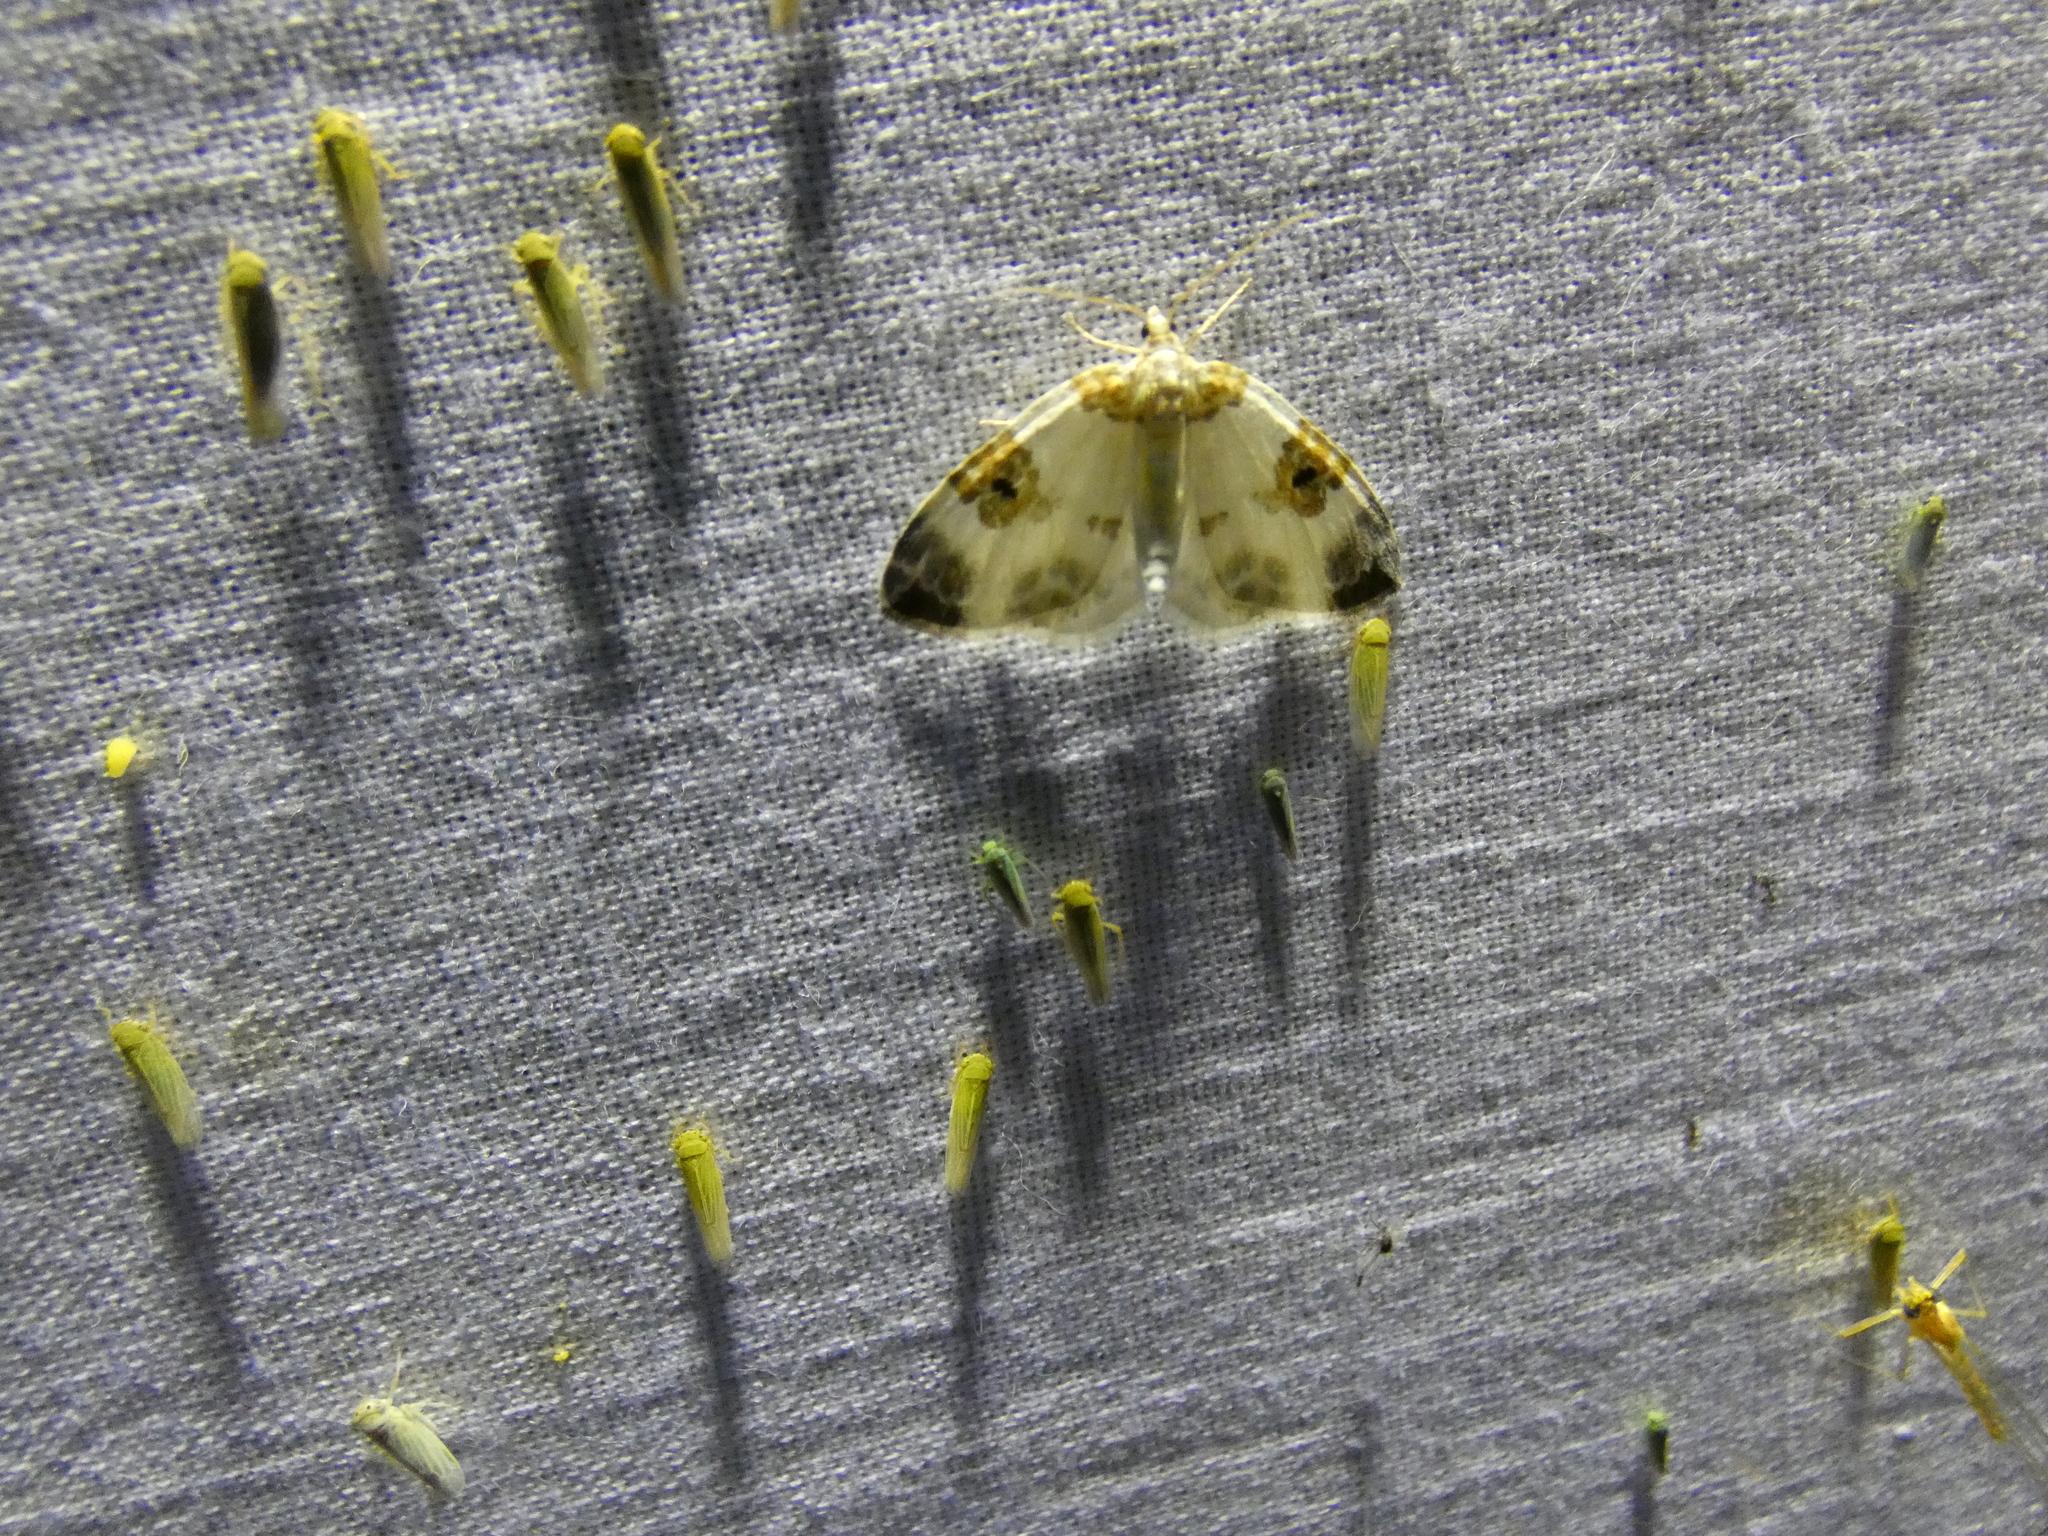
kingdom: Animalia
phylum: Arthropoda
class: Insecta
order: Lepidoptera
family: Geometridae
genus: Plemyria
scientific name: Plemyria rubiginata
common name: Blue-bordered carpet
